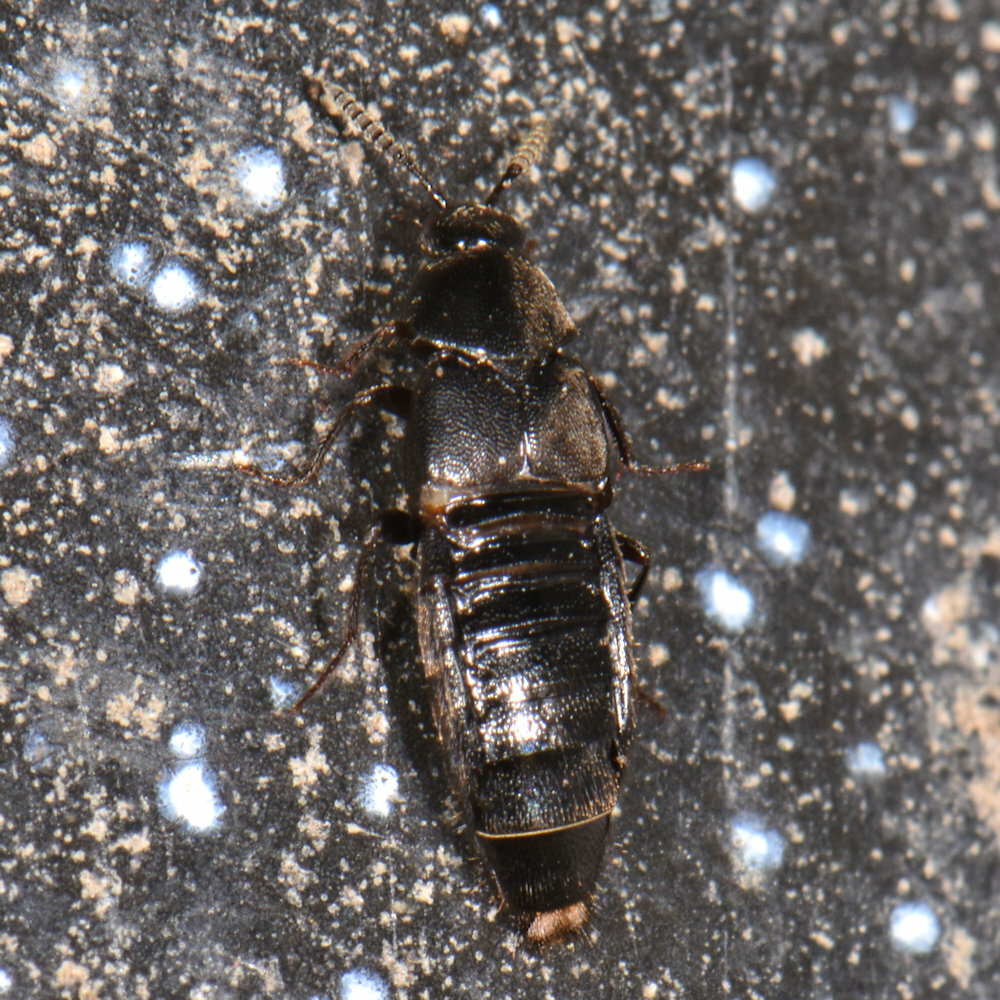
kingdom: Animalia
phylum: Arthropoda
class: Insecta
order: Coleoptera
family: Staphylinidae
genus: Aleochara
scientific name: Aleochara lata
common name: Rove beetle
